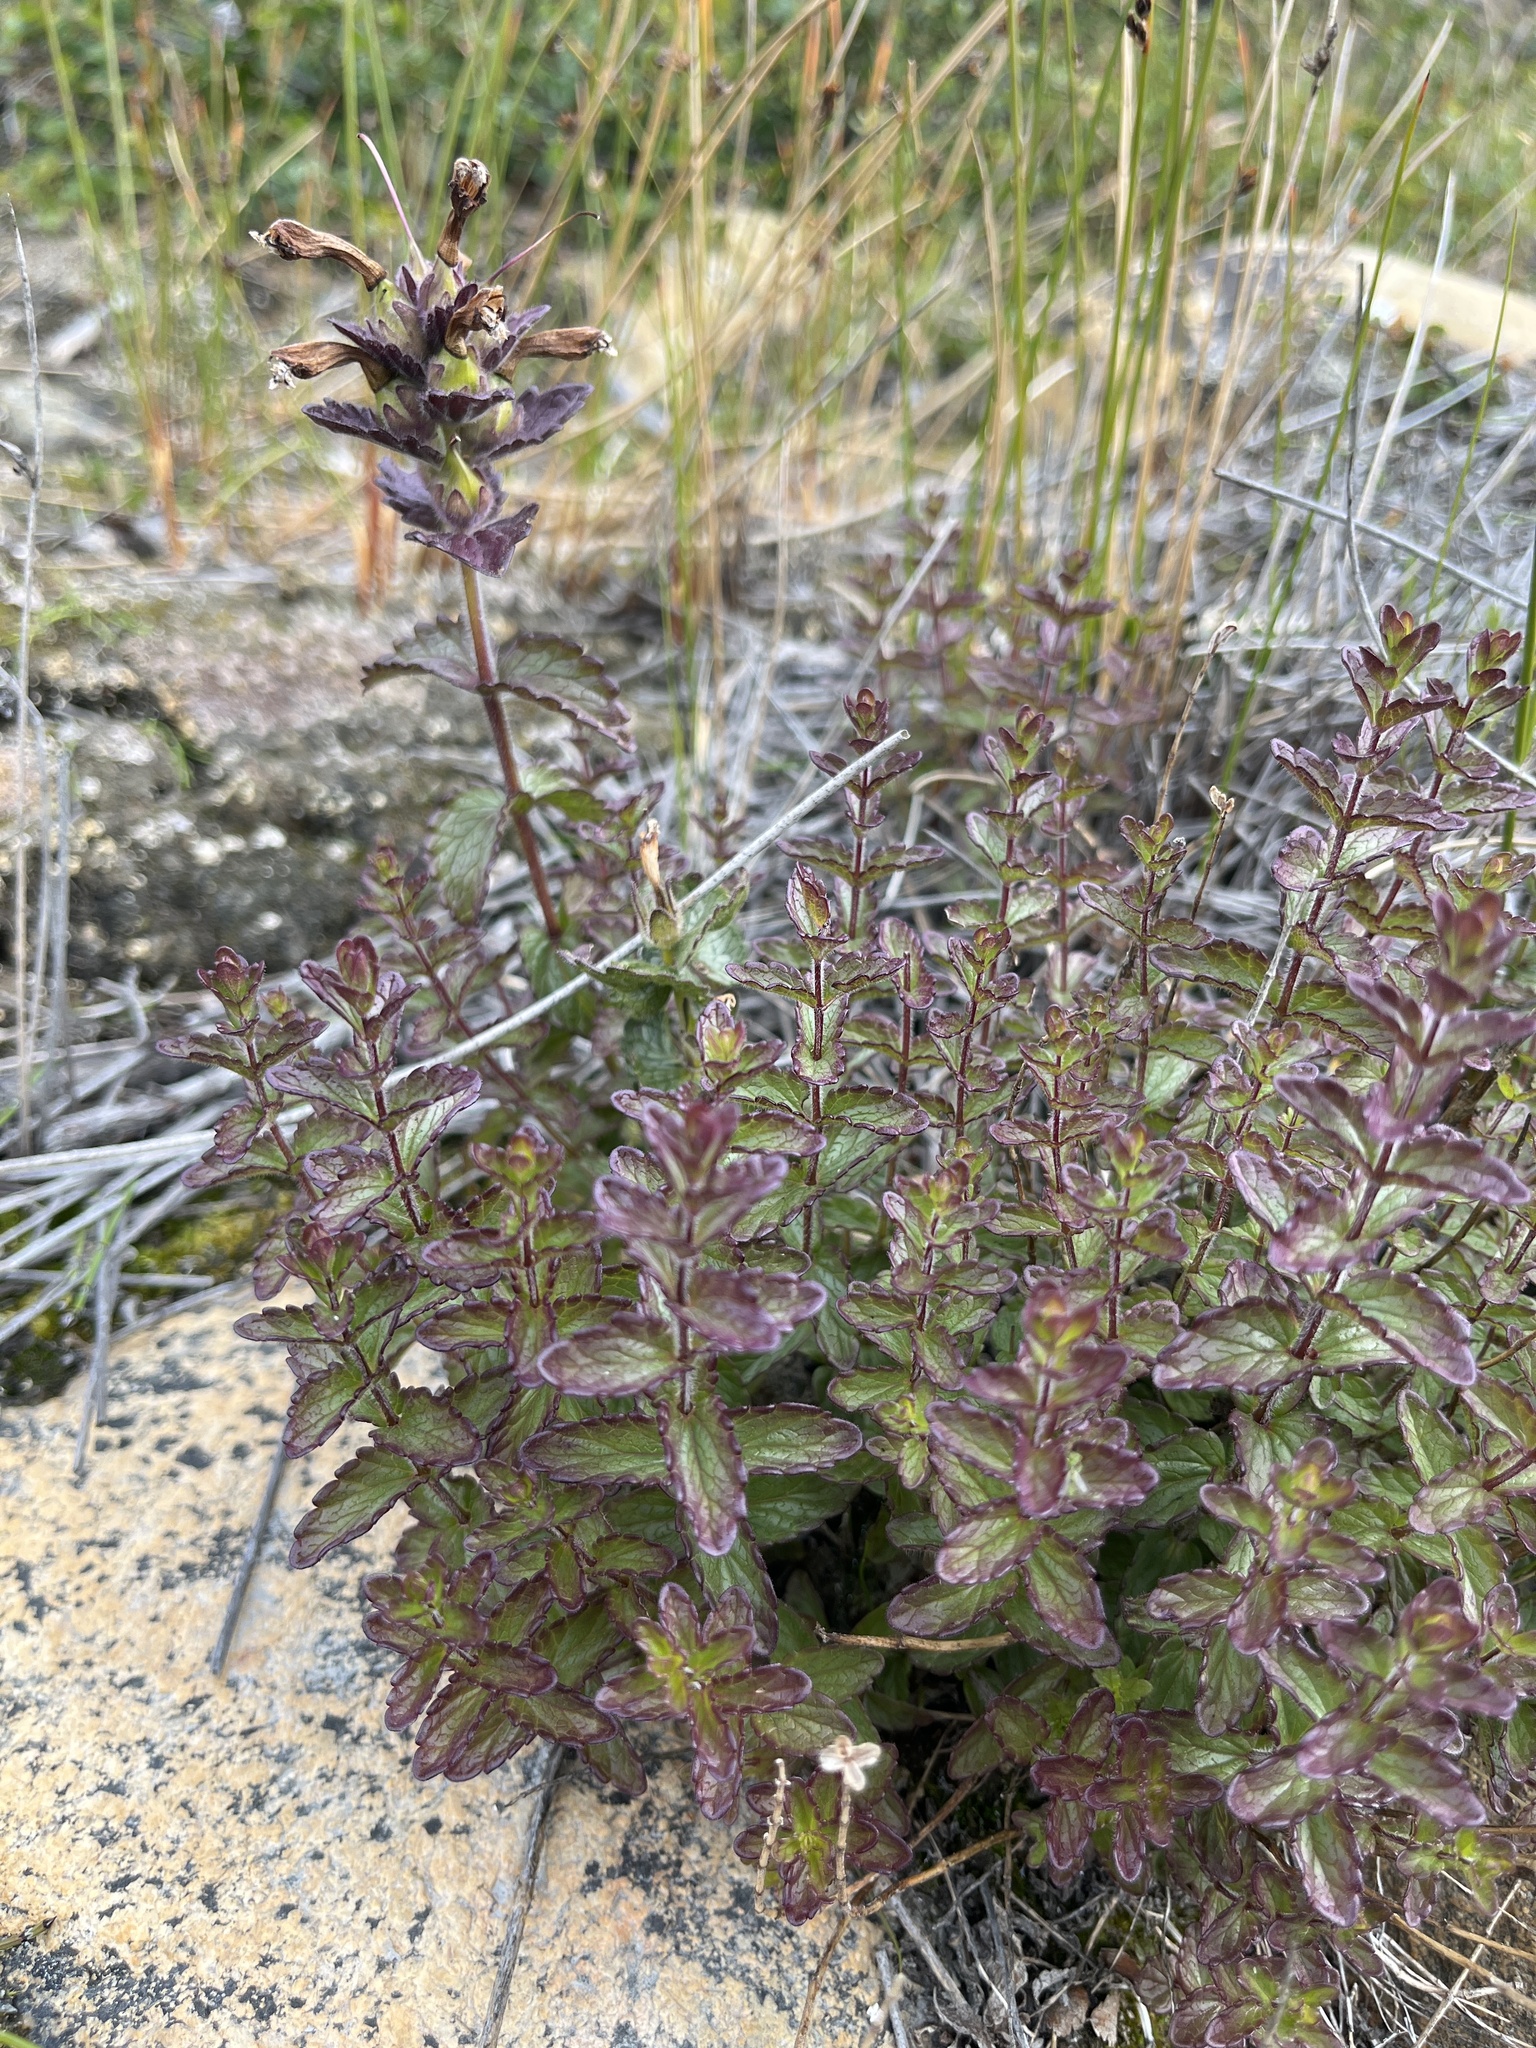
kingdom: Plantae
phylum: Tracheophyta
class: Magnoliopsida
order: Lamiales
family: Orobanchaceae
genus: Bartsia
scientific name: Bartsia alpina
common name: Alpine bartsia
